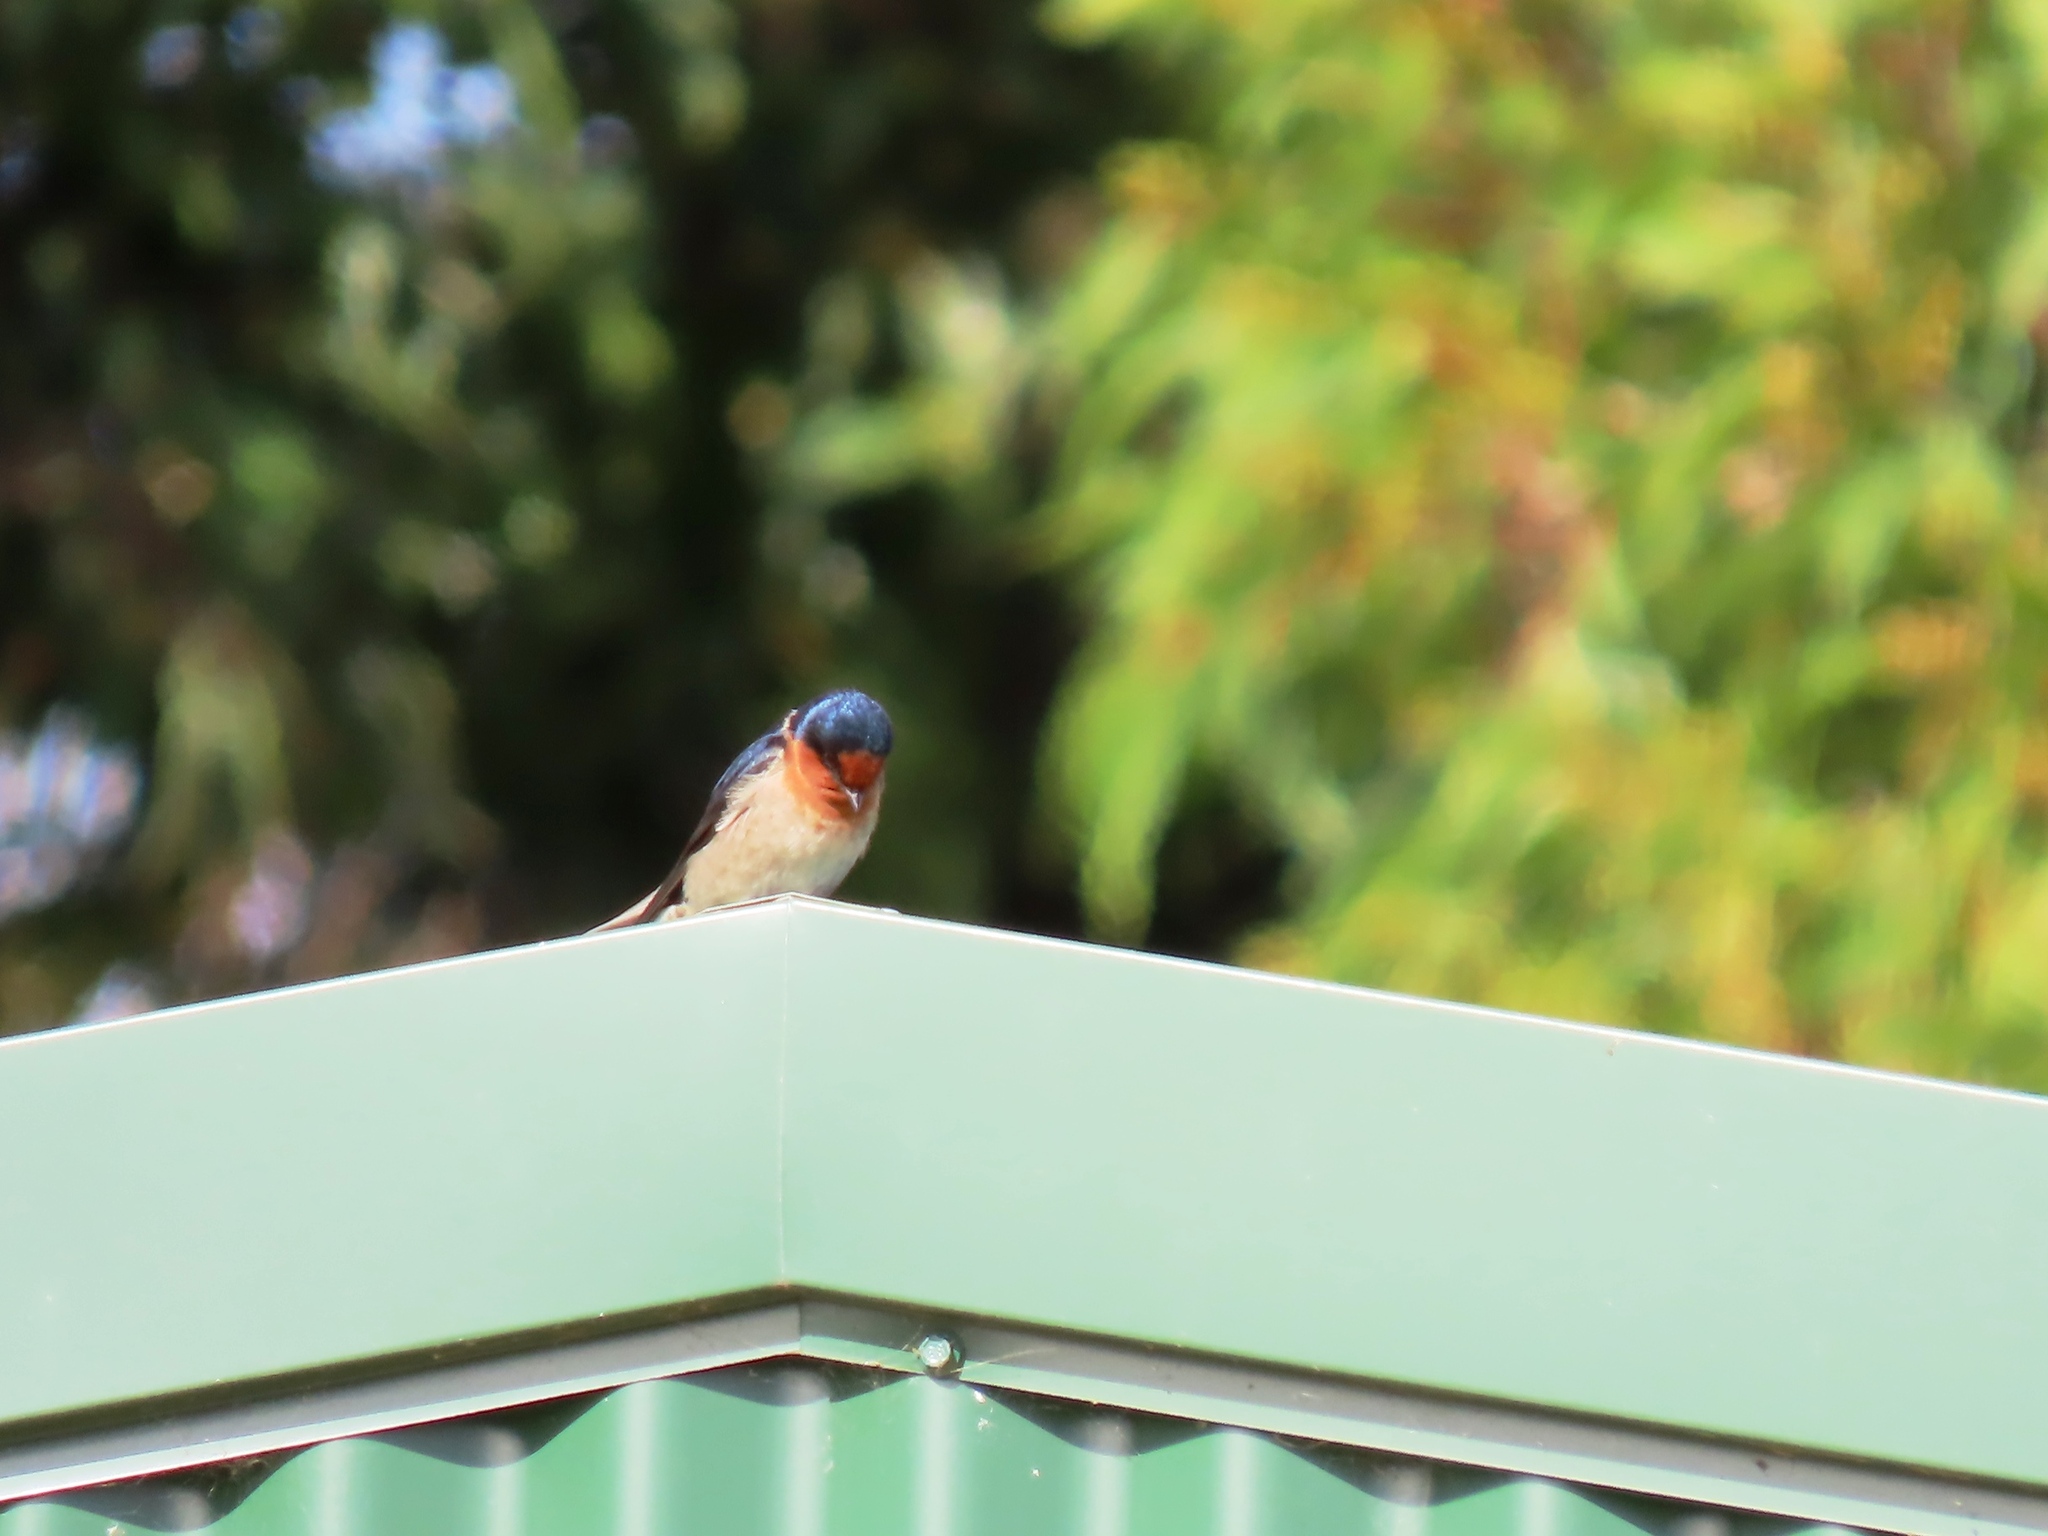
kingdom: Animalia
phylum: Chordata
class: Aves
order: Passeriformes
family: Hirundinidae
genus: Hirundo
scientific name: Hirundo neoxena
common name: Welcome swallow
